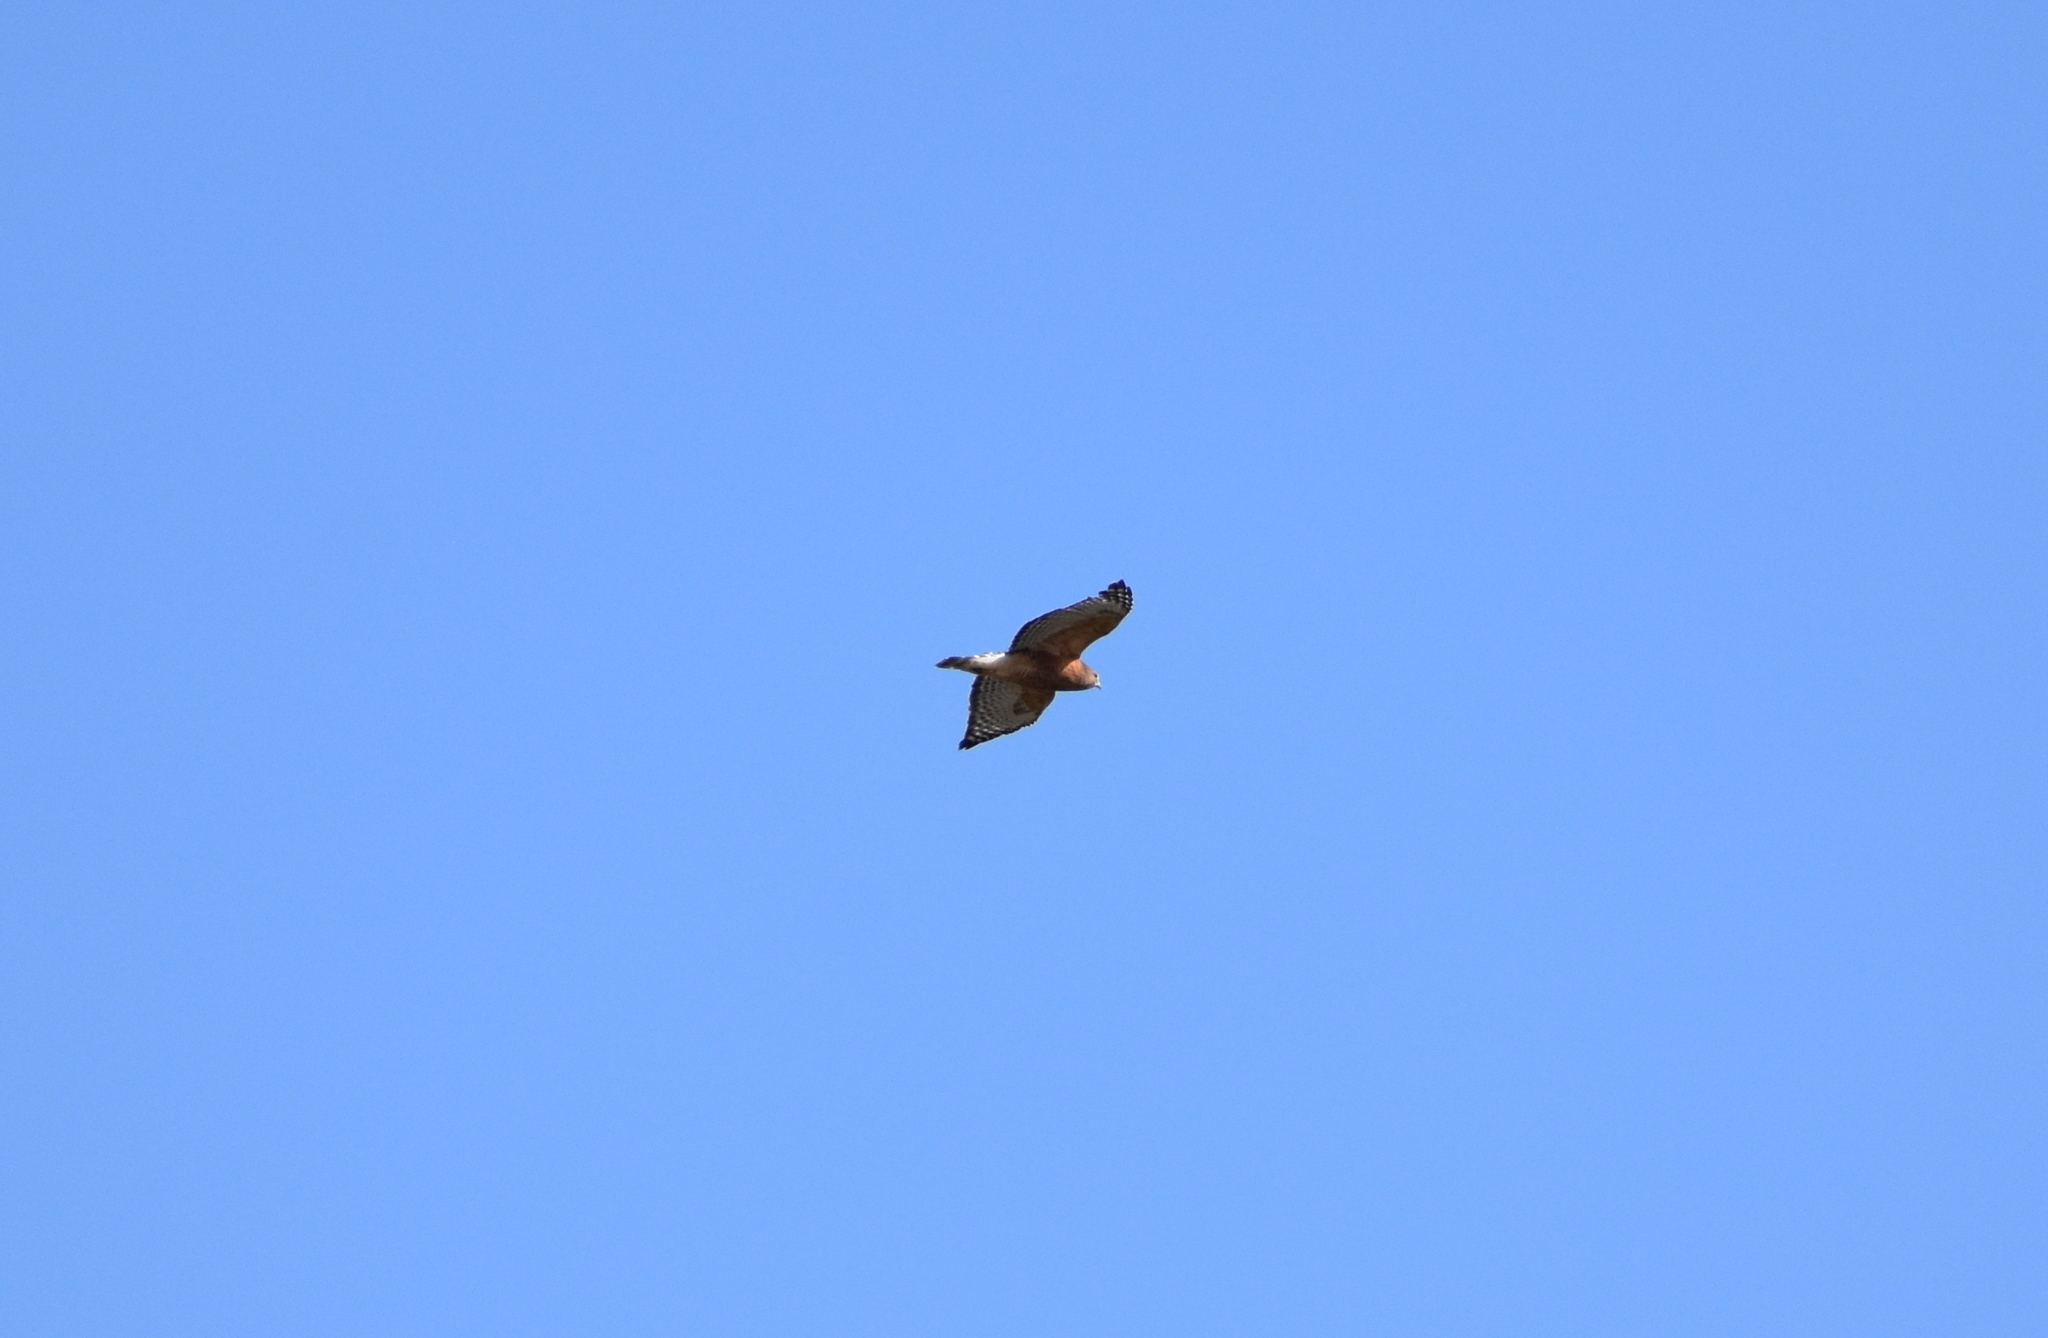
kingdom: Animalia
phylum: Chordata
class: Aves
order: Accipitriformes
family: Accipitridae
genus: Buteo
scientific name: Buteo lineatus
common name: Red-shouldered hawk
